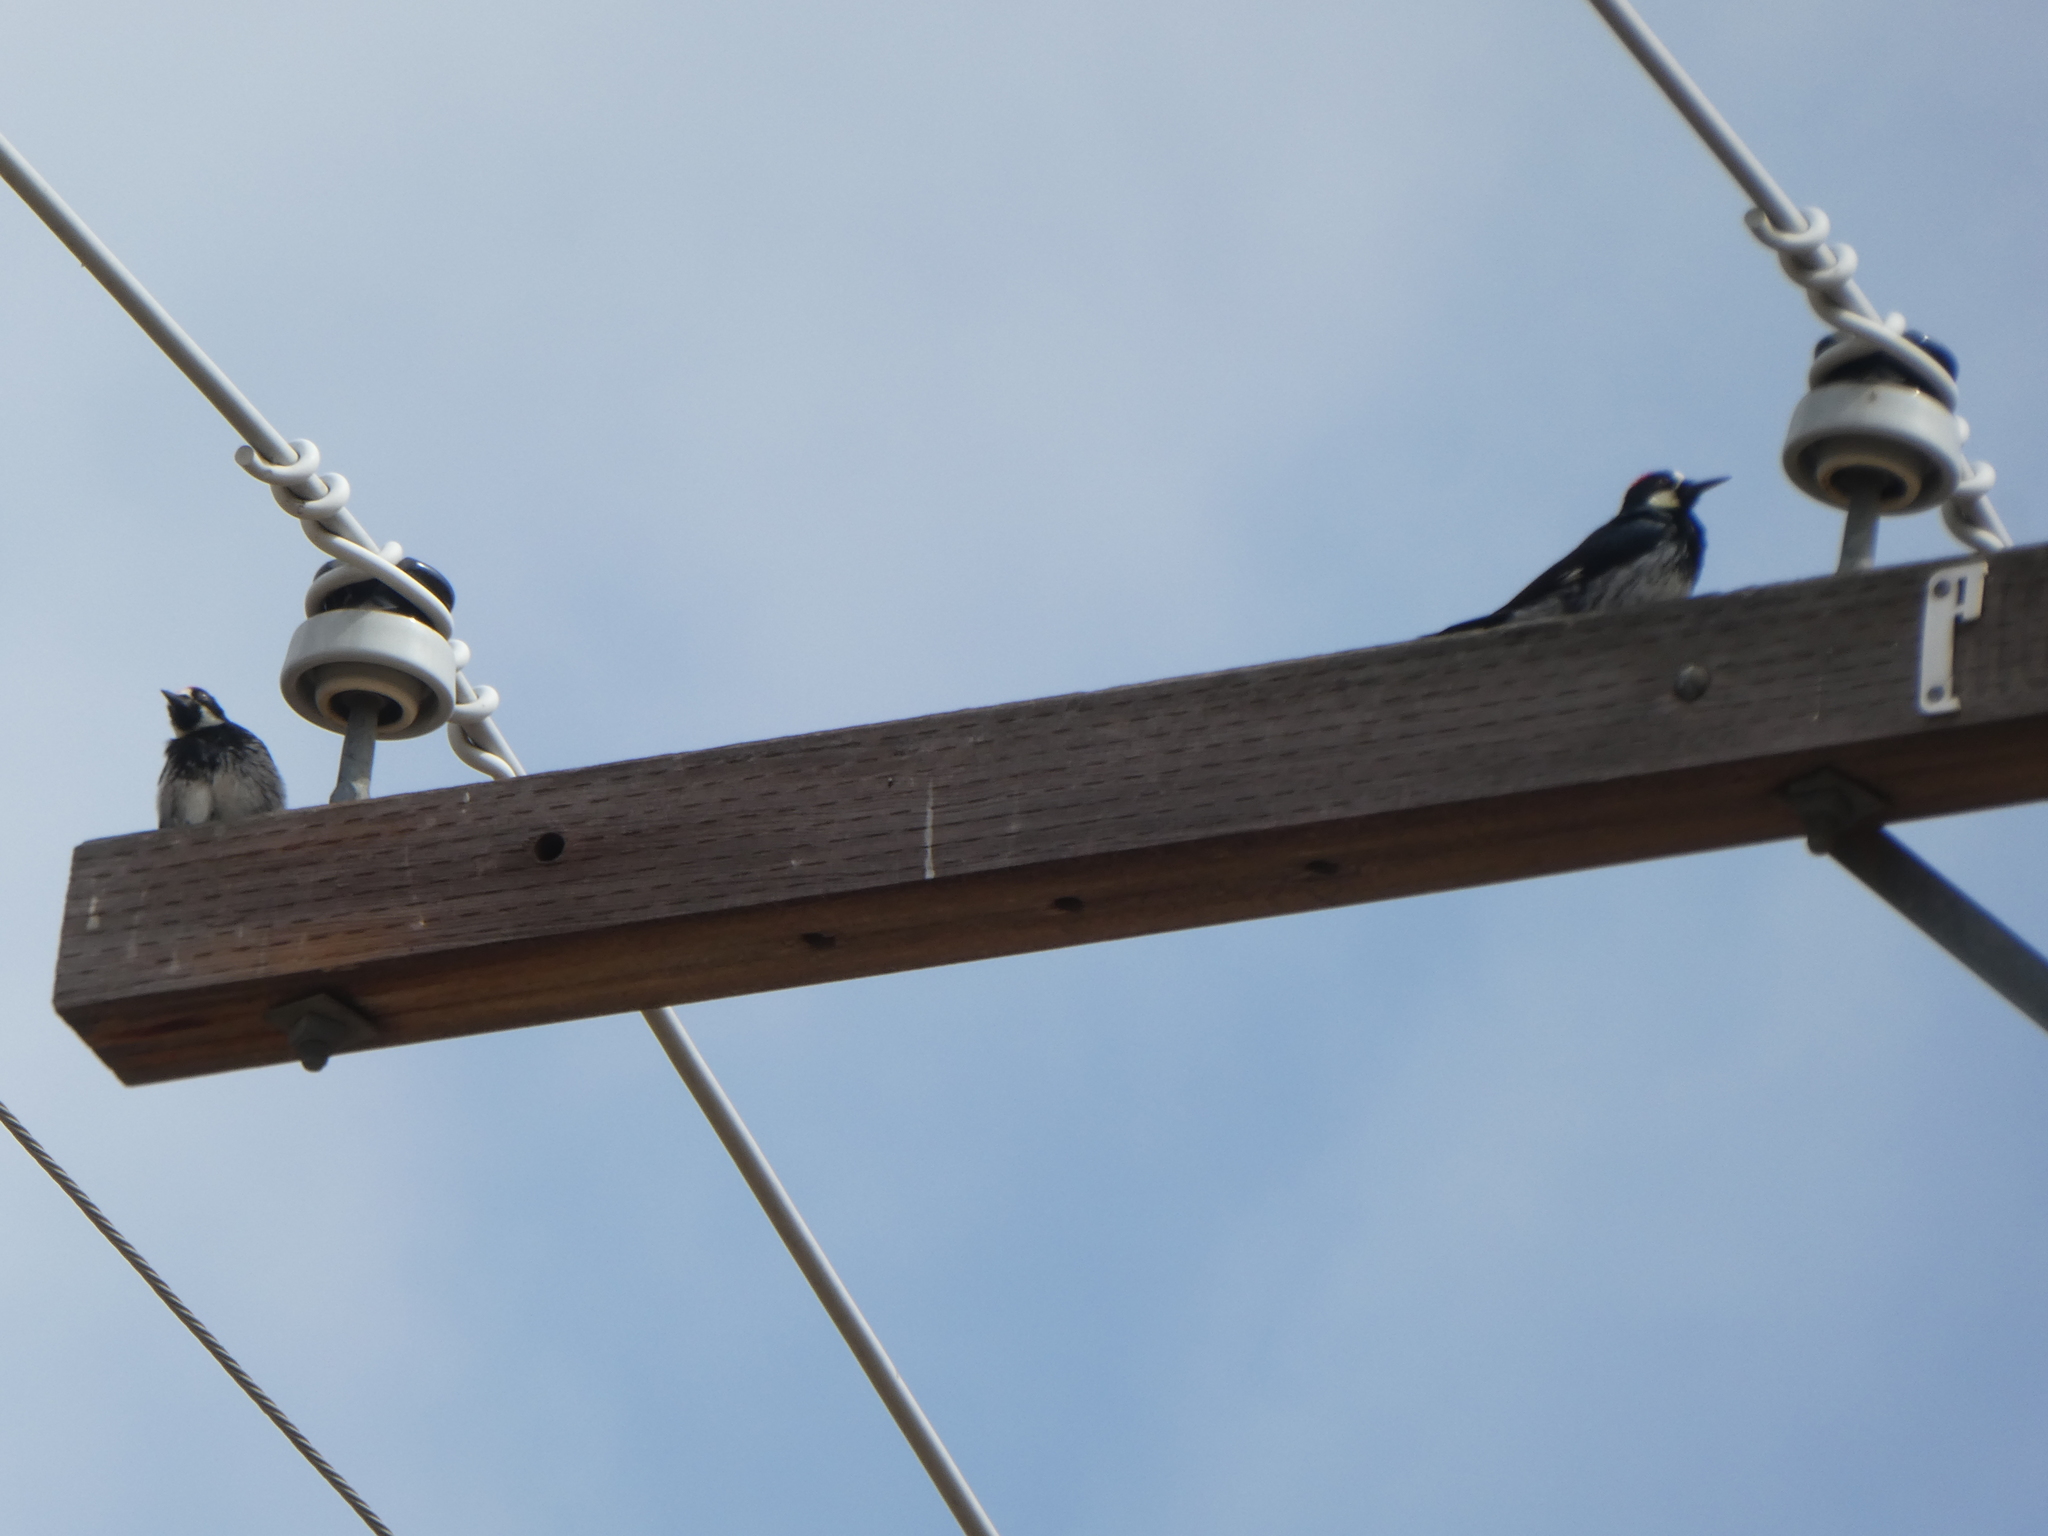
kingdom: Animalia
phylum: Chordata
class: Aves
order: Piciformes
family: Picidae
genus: Melanerpes
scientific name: Melanerpes formicivorus
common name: Acorn woodpecker
